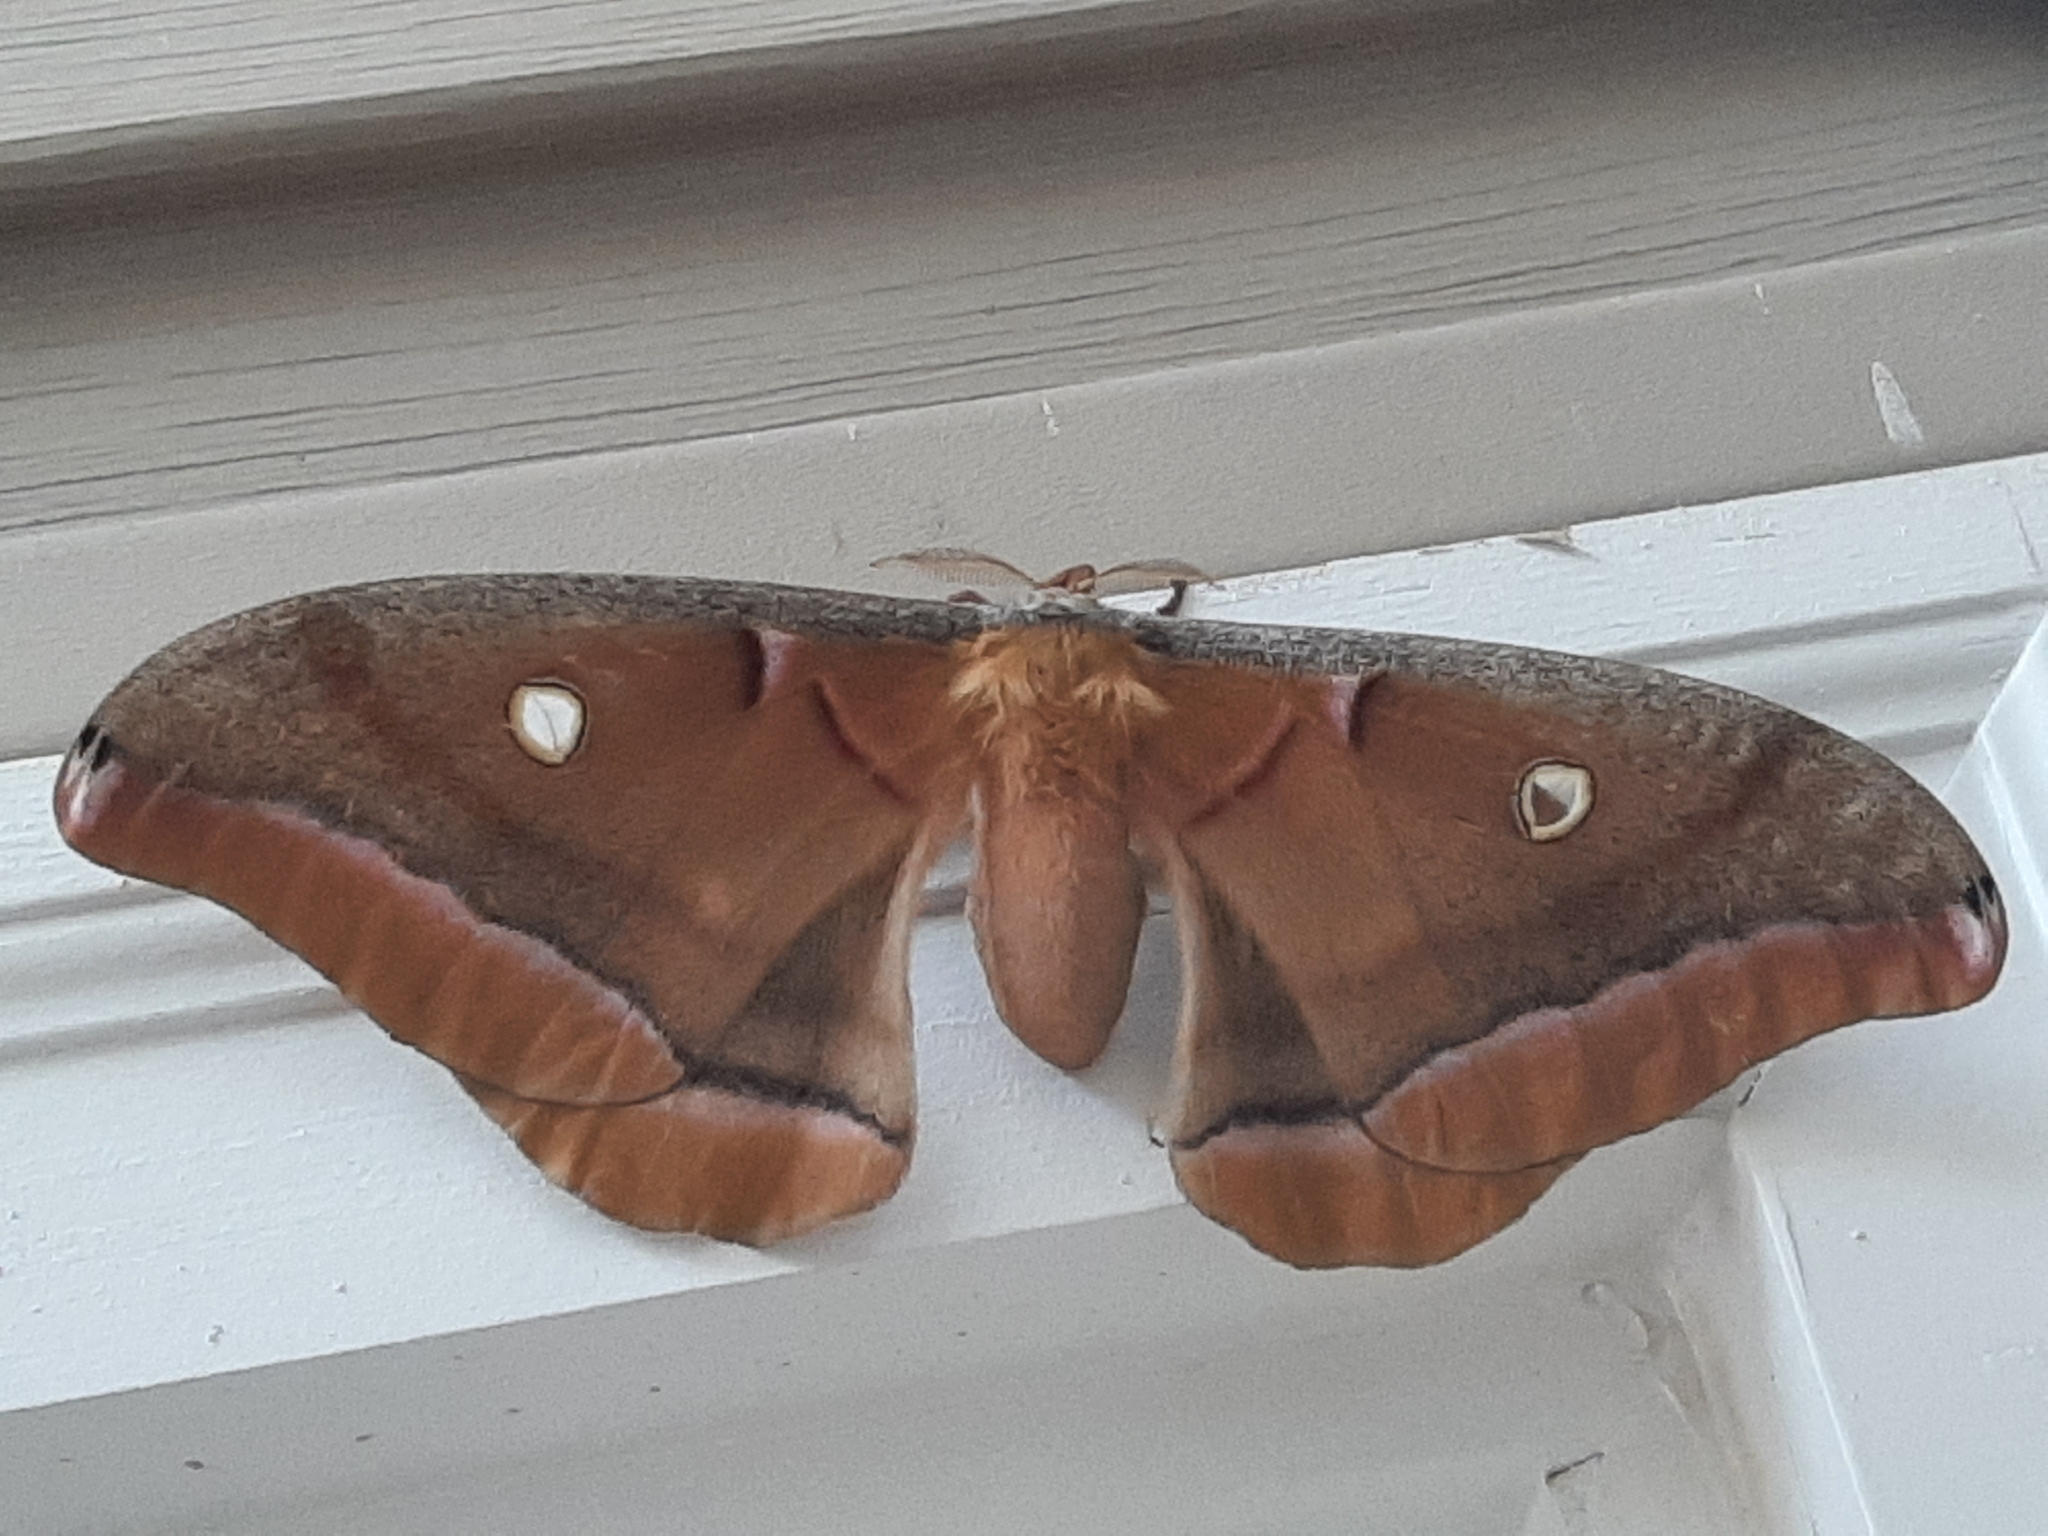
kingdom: Animalia
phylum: Arthropoda
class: Insecta
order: Lepidoptera
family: Saturniidae
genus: Antheraea
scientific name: Antheraea polyphemus
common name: Polyphemus moth
